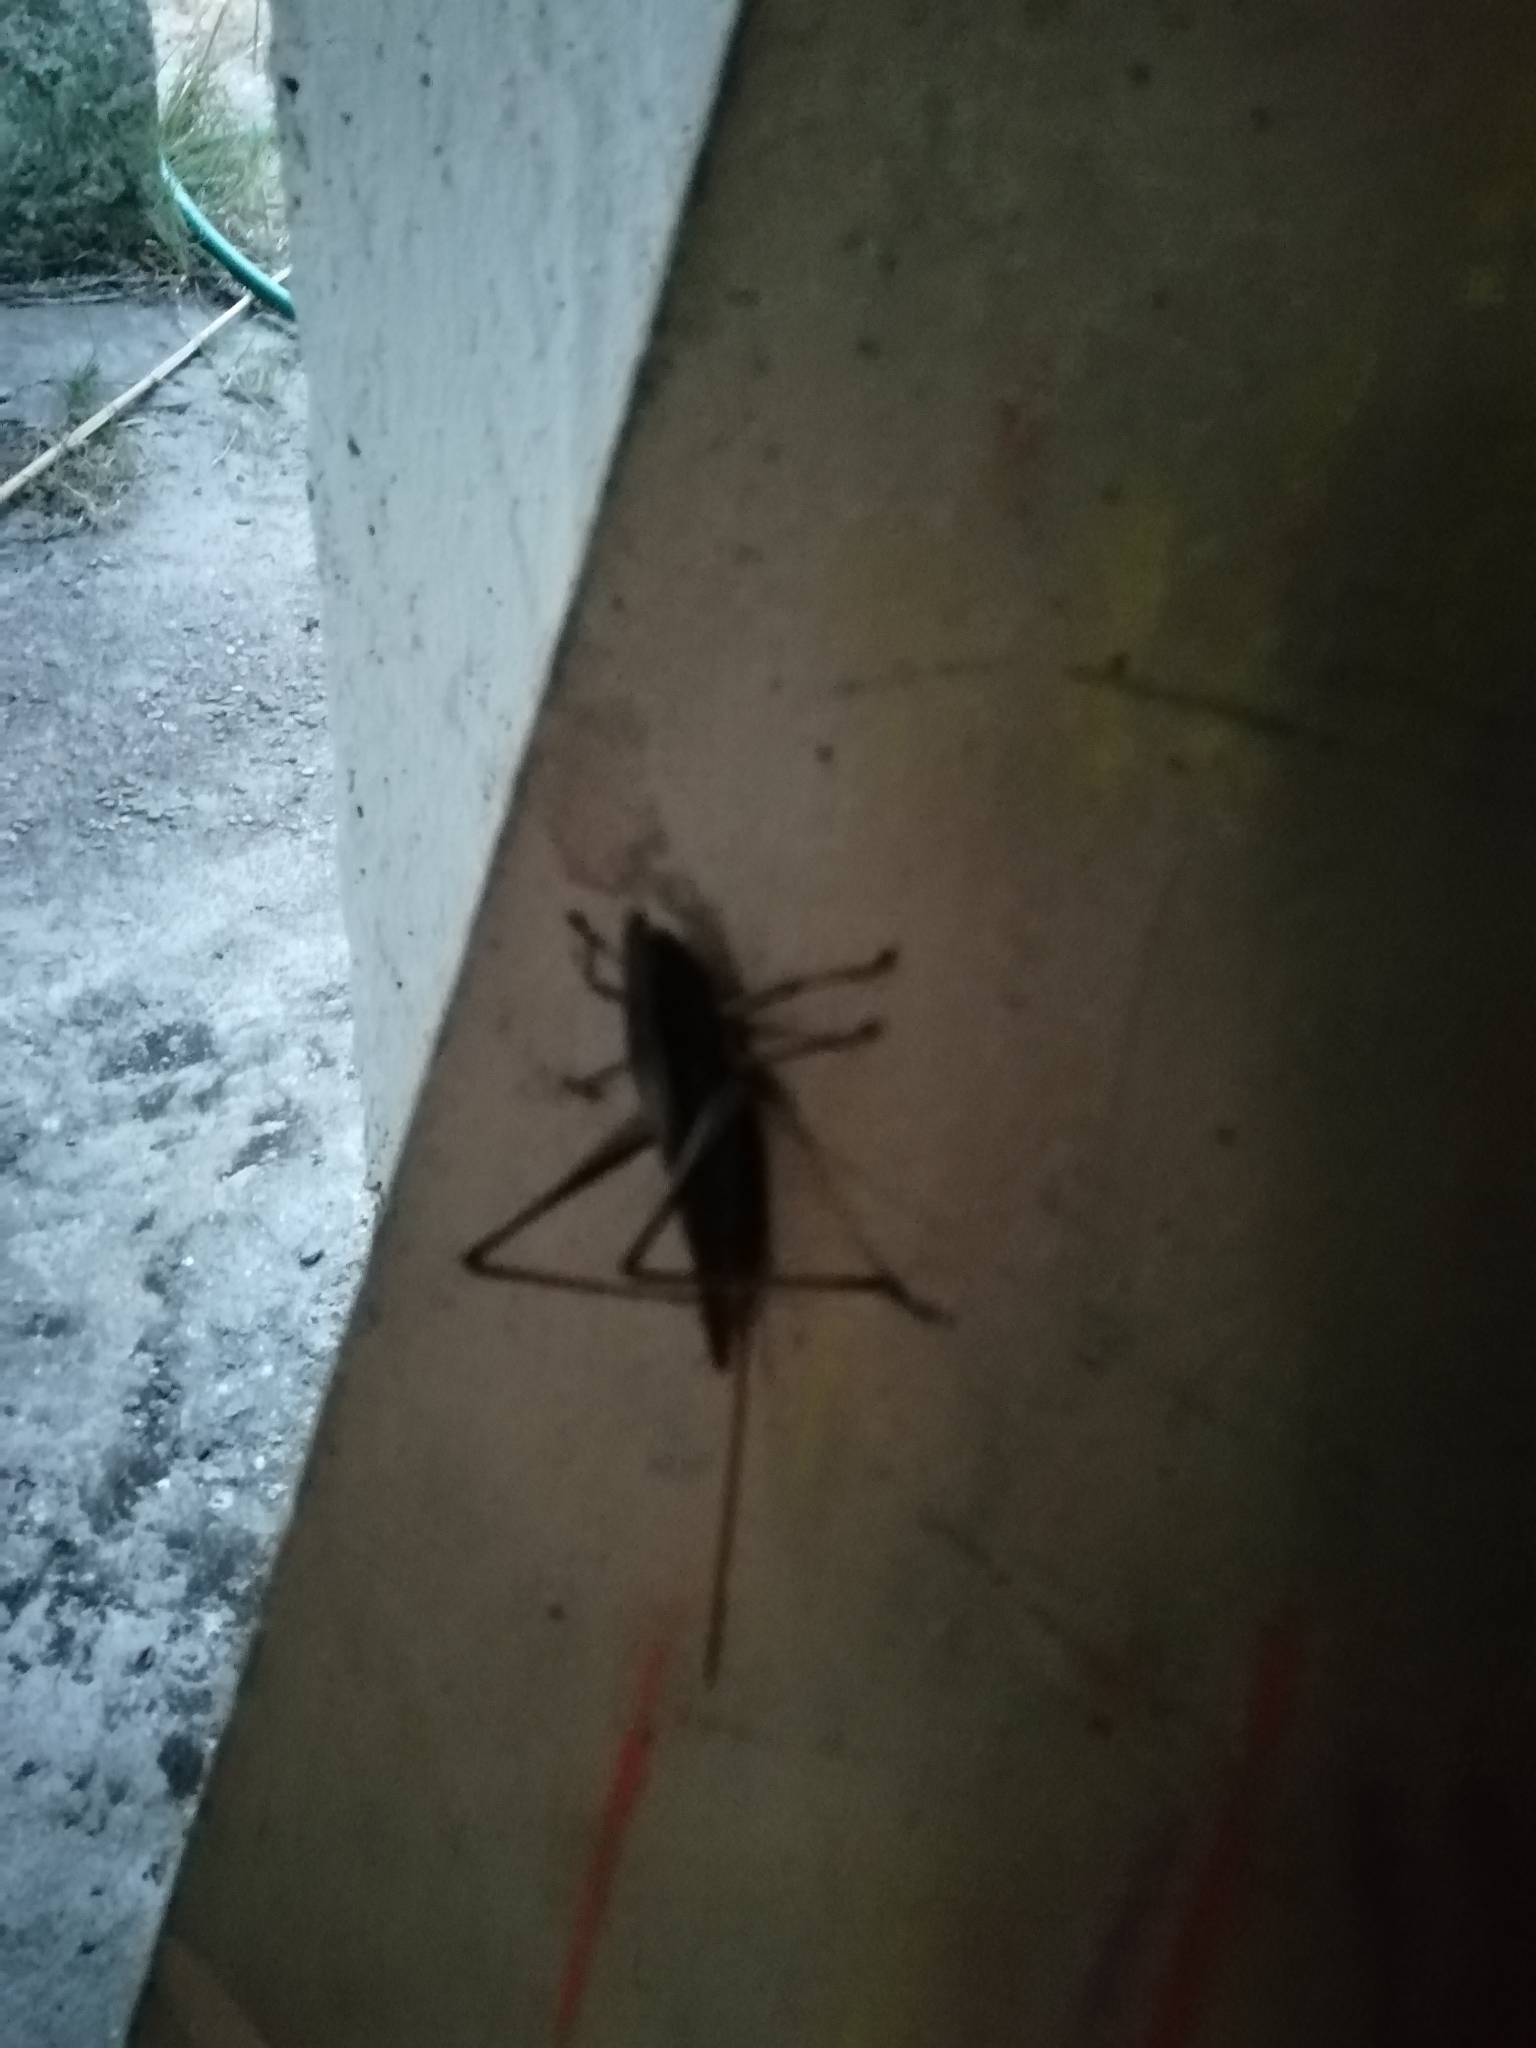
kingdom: Animalia
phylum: Arthropoda
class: Insecta
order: Orthoptera
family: Tettigoniidae
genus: Neoconocephalus
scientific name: Neoconocephalus brevis
